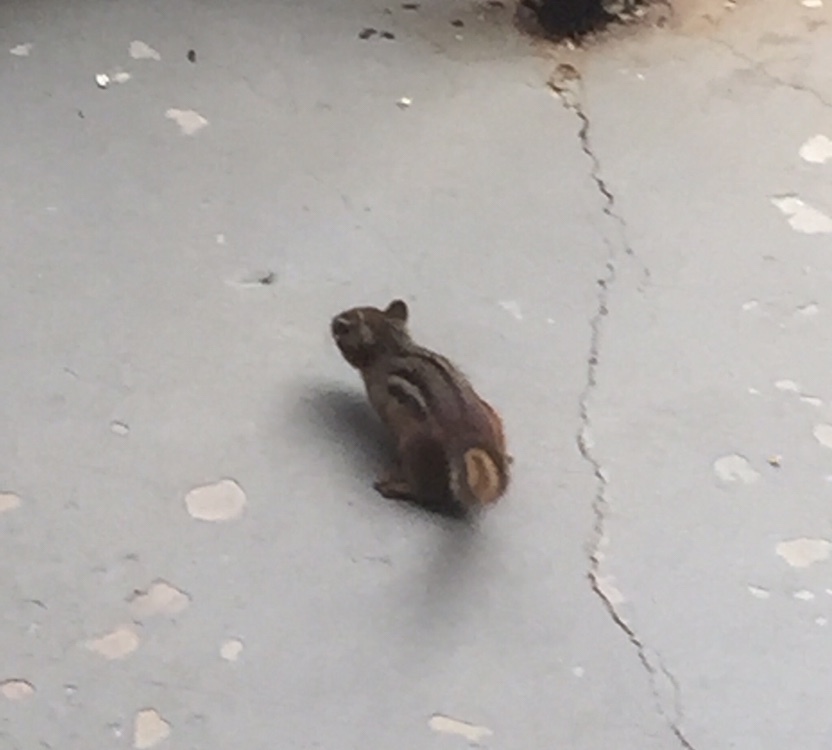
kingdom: Animalia
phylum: Chordata
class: Mammalia
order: Rodentia
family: Sciuridae
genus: Tamias
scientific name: Tamias striatus
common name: Eastern chipmunk
